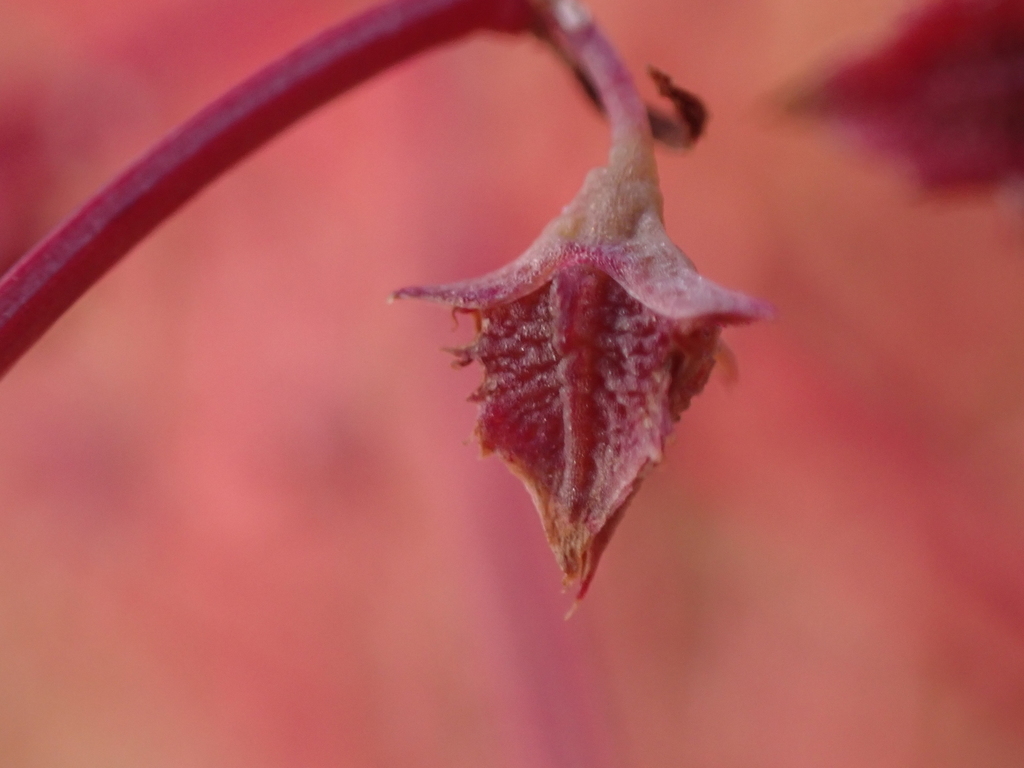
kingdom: Plantae
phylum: Tracheophyta
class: Magnoliopsida
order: Caryophyllales
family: Polygonaceae
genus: Rumex
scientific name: Rumex dumosus
